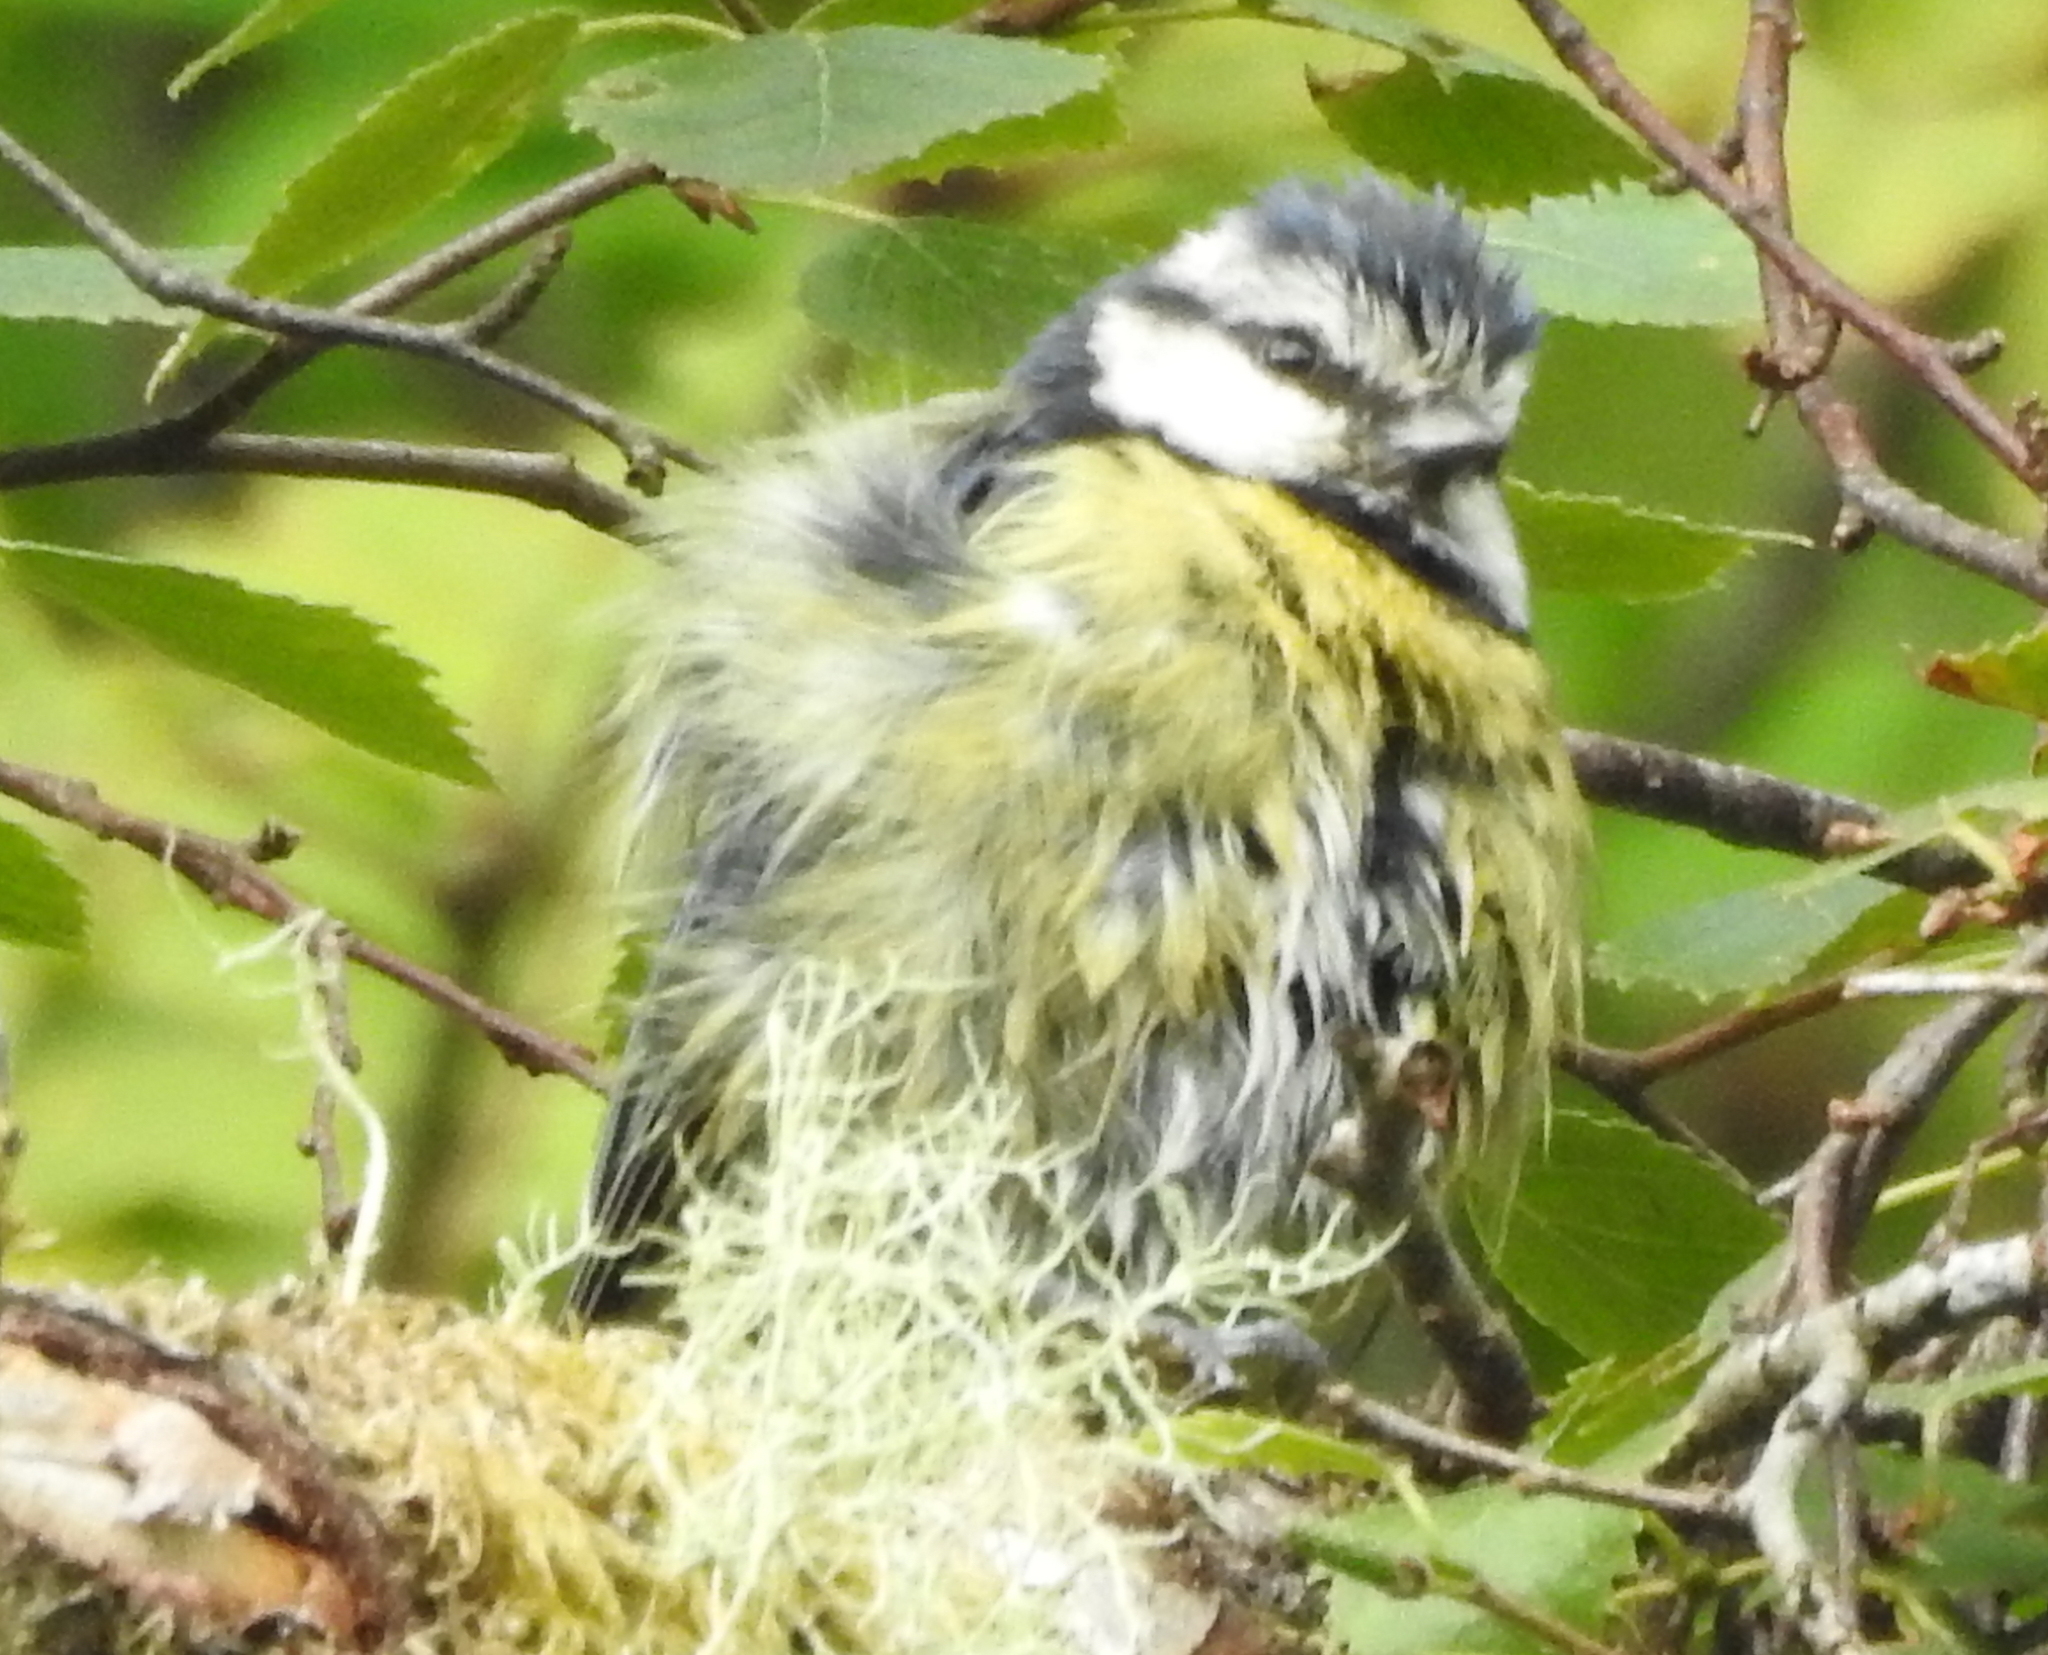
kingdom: Animalia
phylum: Chordata
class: Aves
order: Passeriformes
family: Paridae
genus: Cyanistes
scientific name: Cyanistes caeruleus
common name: Eurasian blue tit
